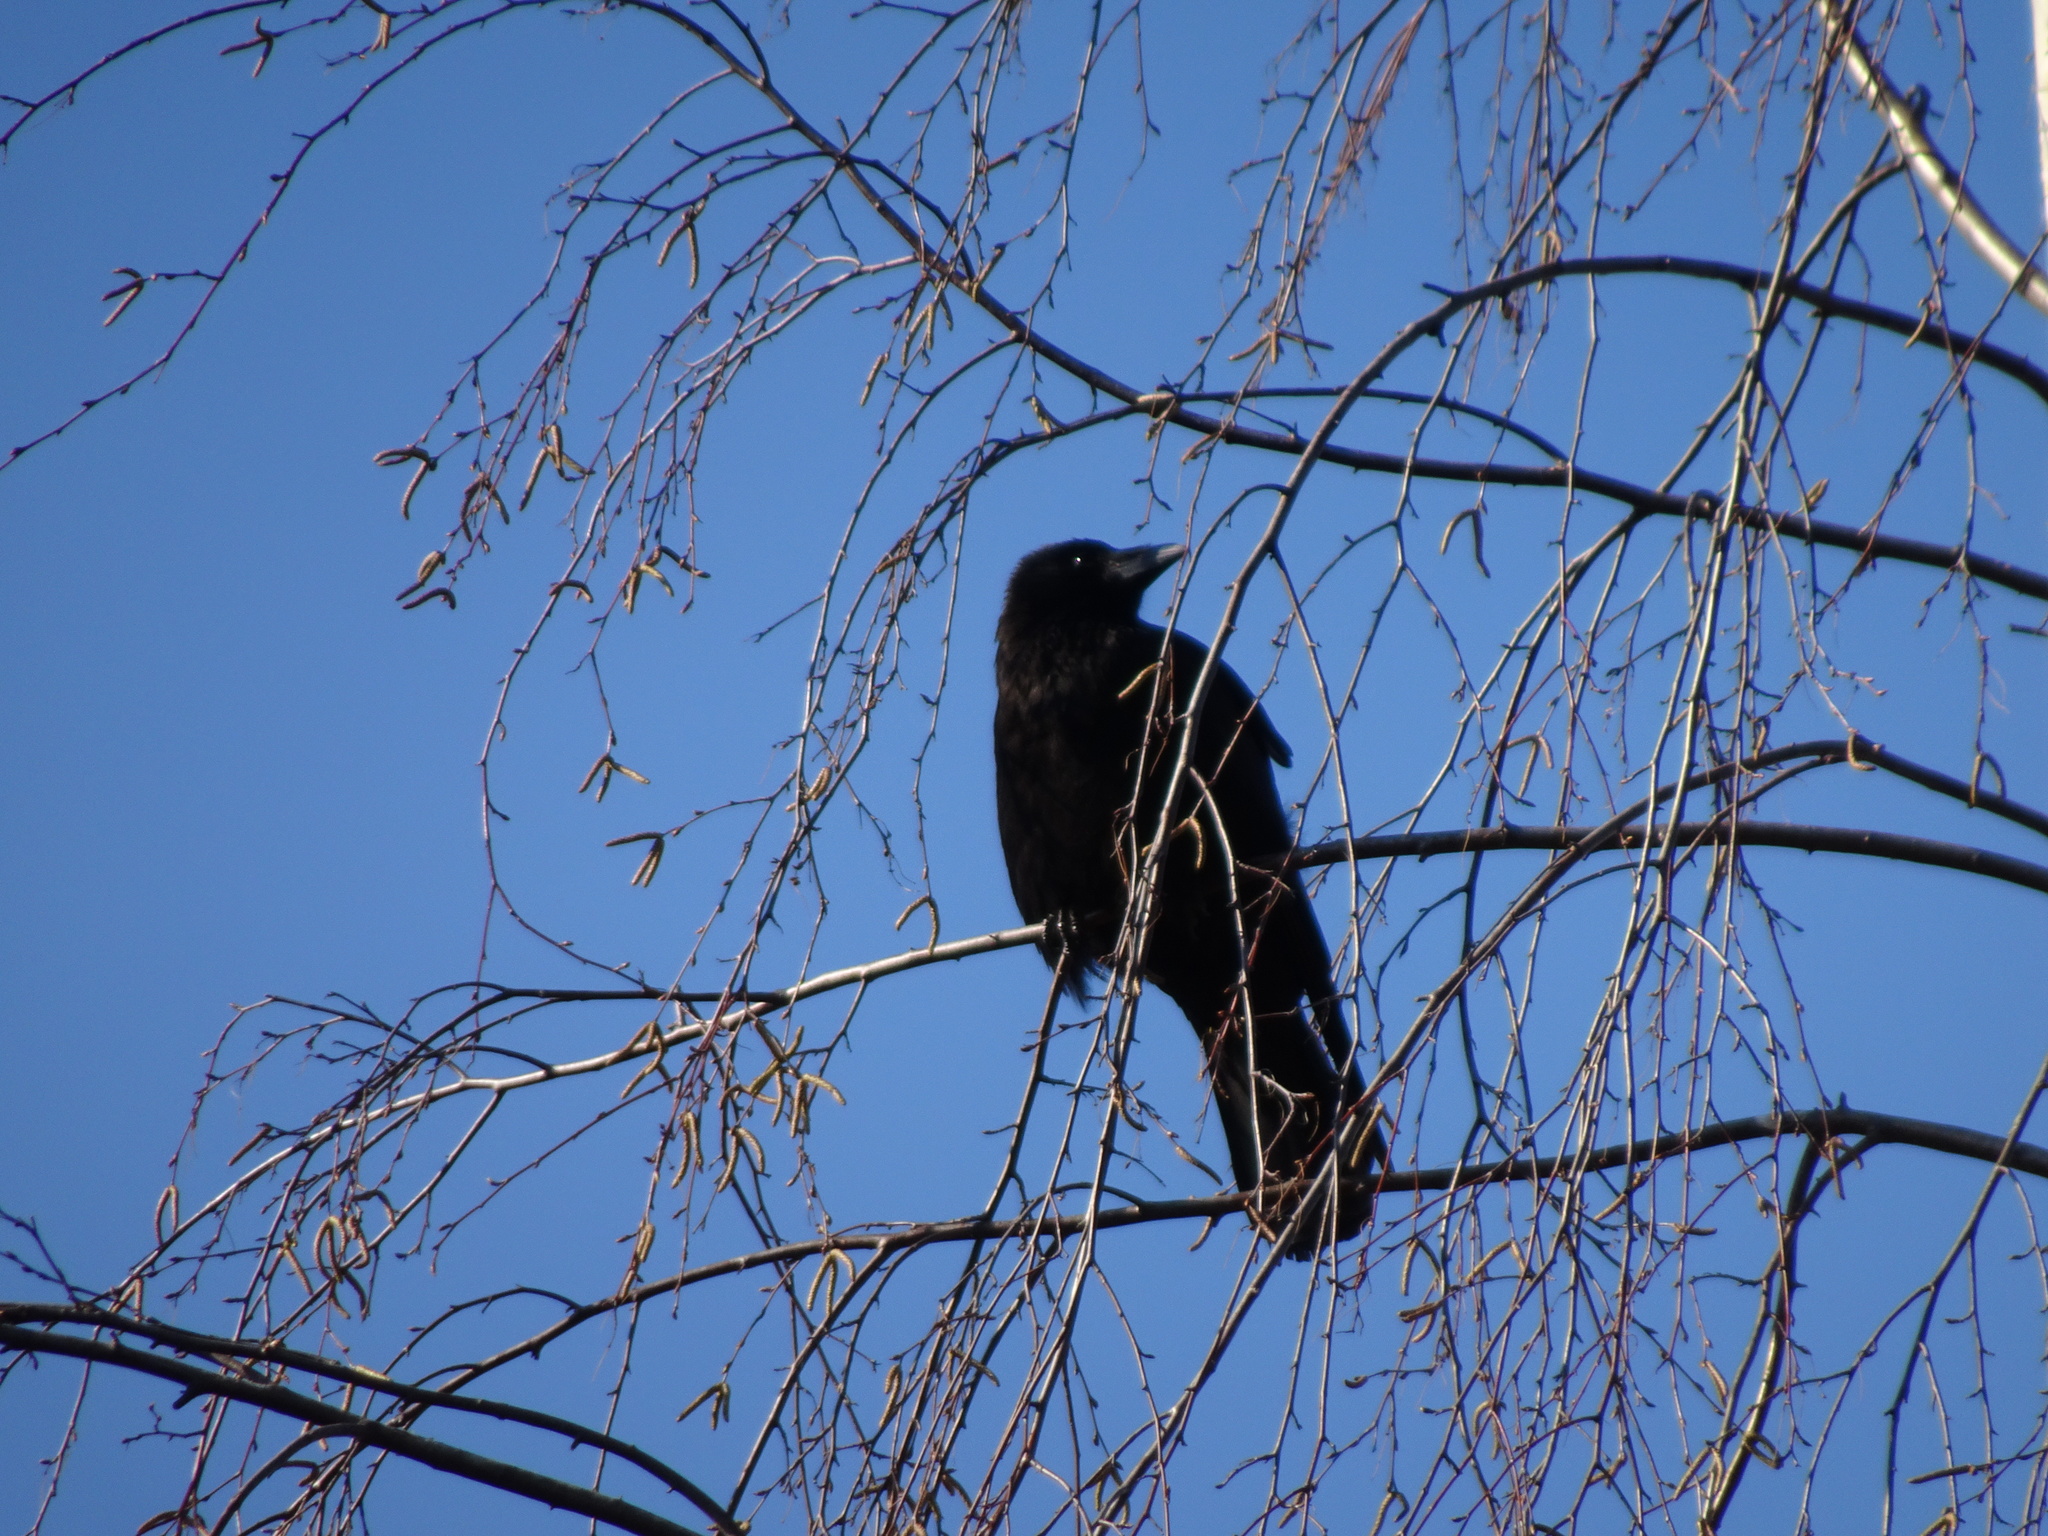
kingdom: Animalia
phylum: Chordata
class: Aves
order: Passeriformes
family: Corvidae
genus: Corvus
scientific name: Corvus corone
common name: Carrion crow
